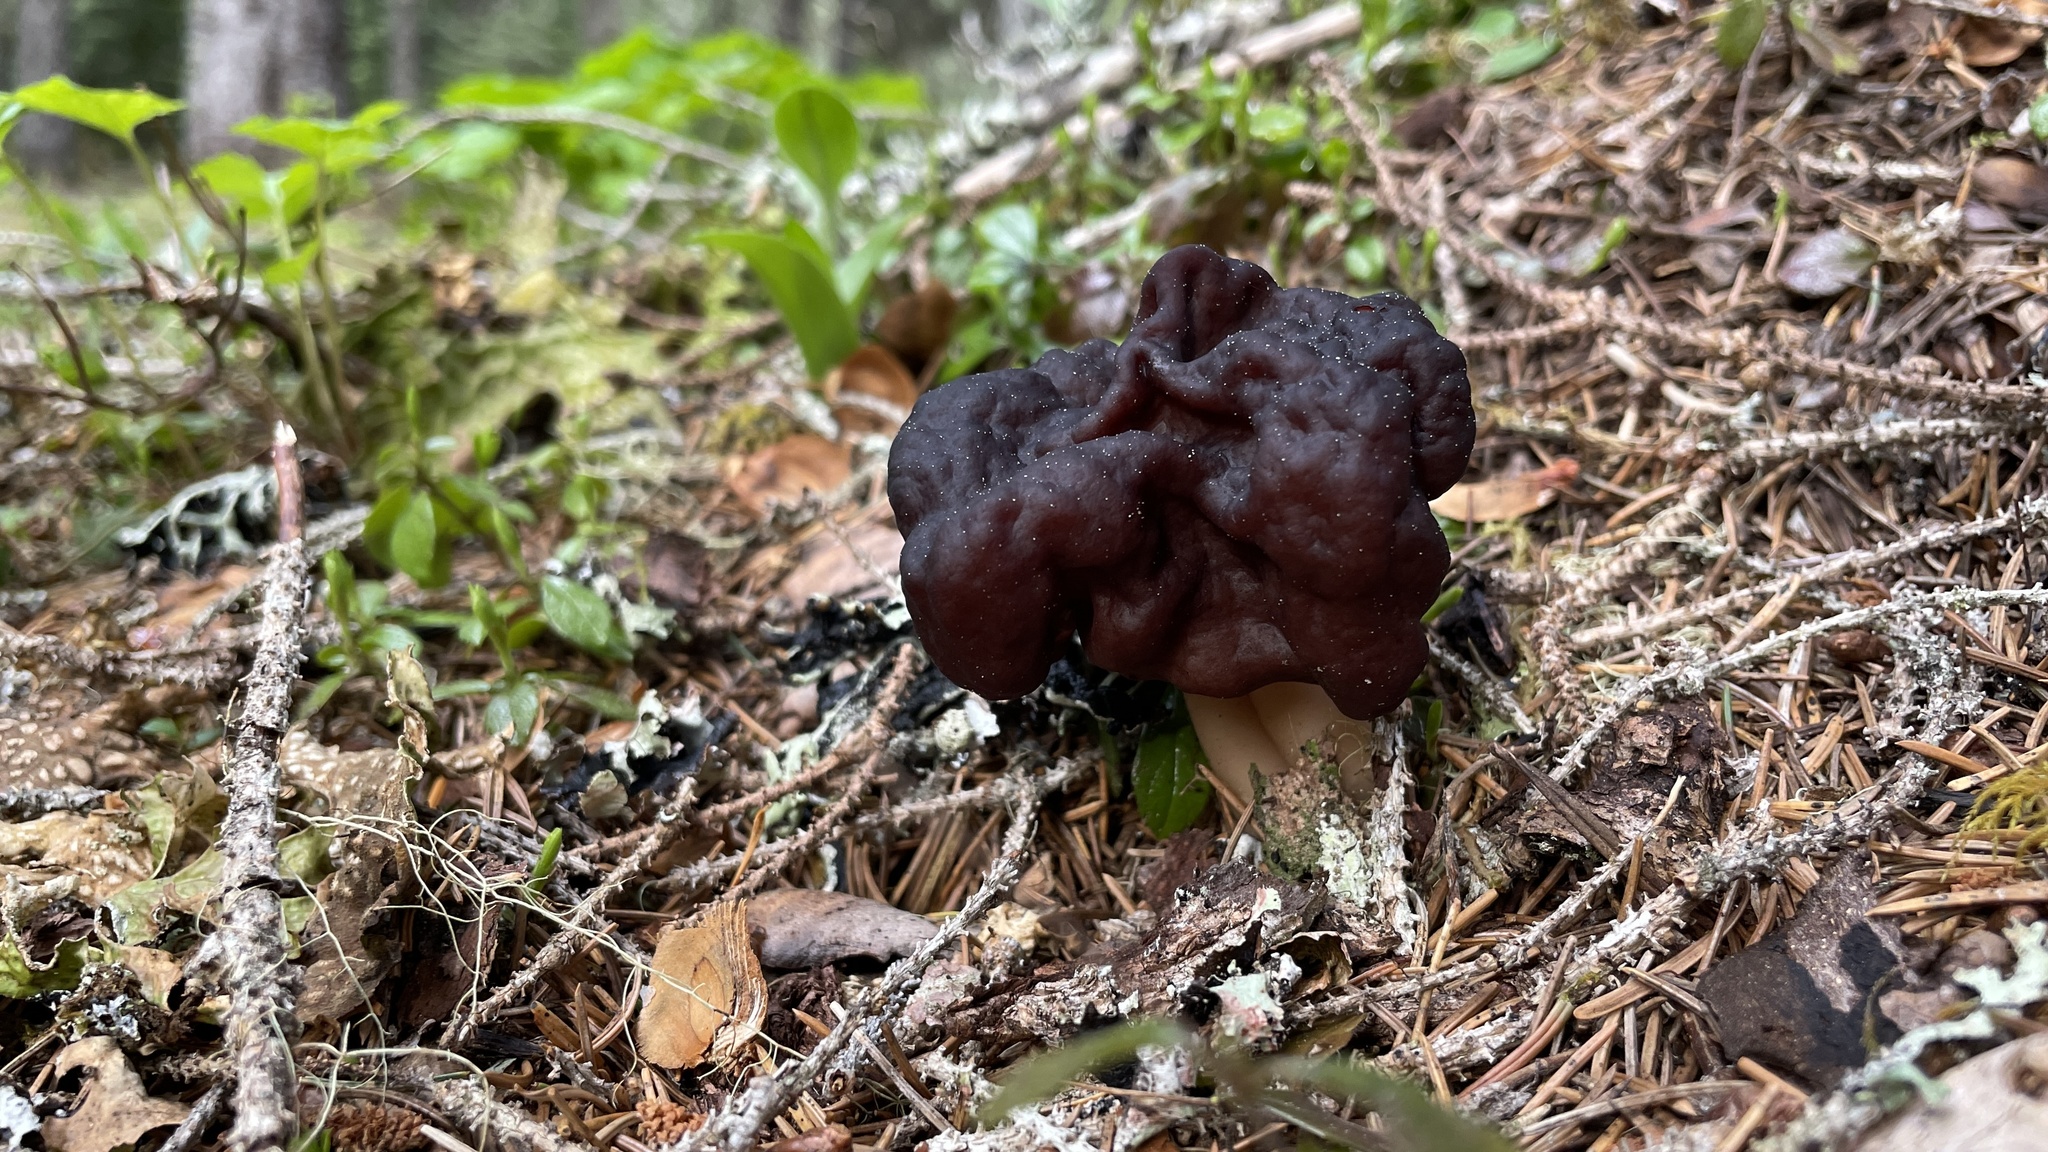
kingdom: Fungi
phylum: Ascomycota
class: Pezizomycetes
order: Pezizales
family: Discinaceae
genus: Gyromitra
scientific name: Gyromitra esculenta
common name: False morel
